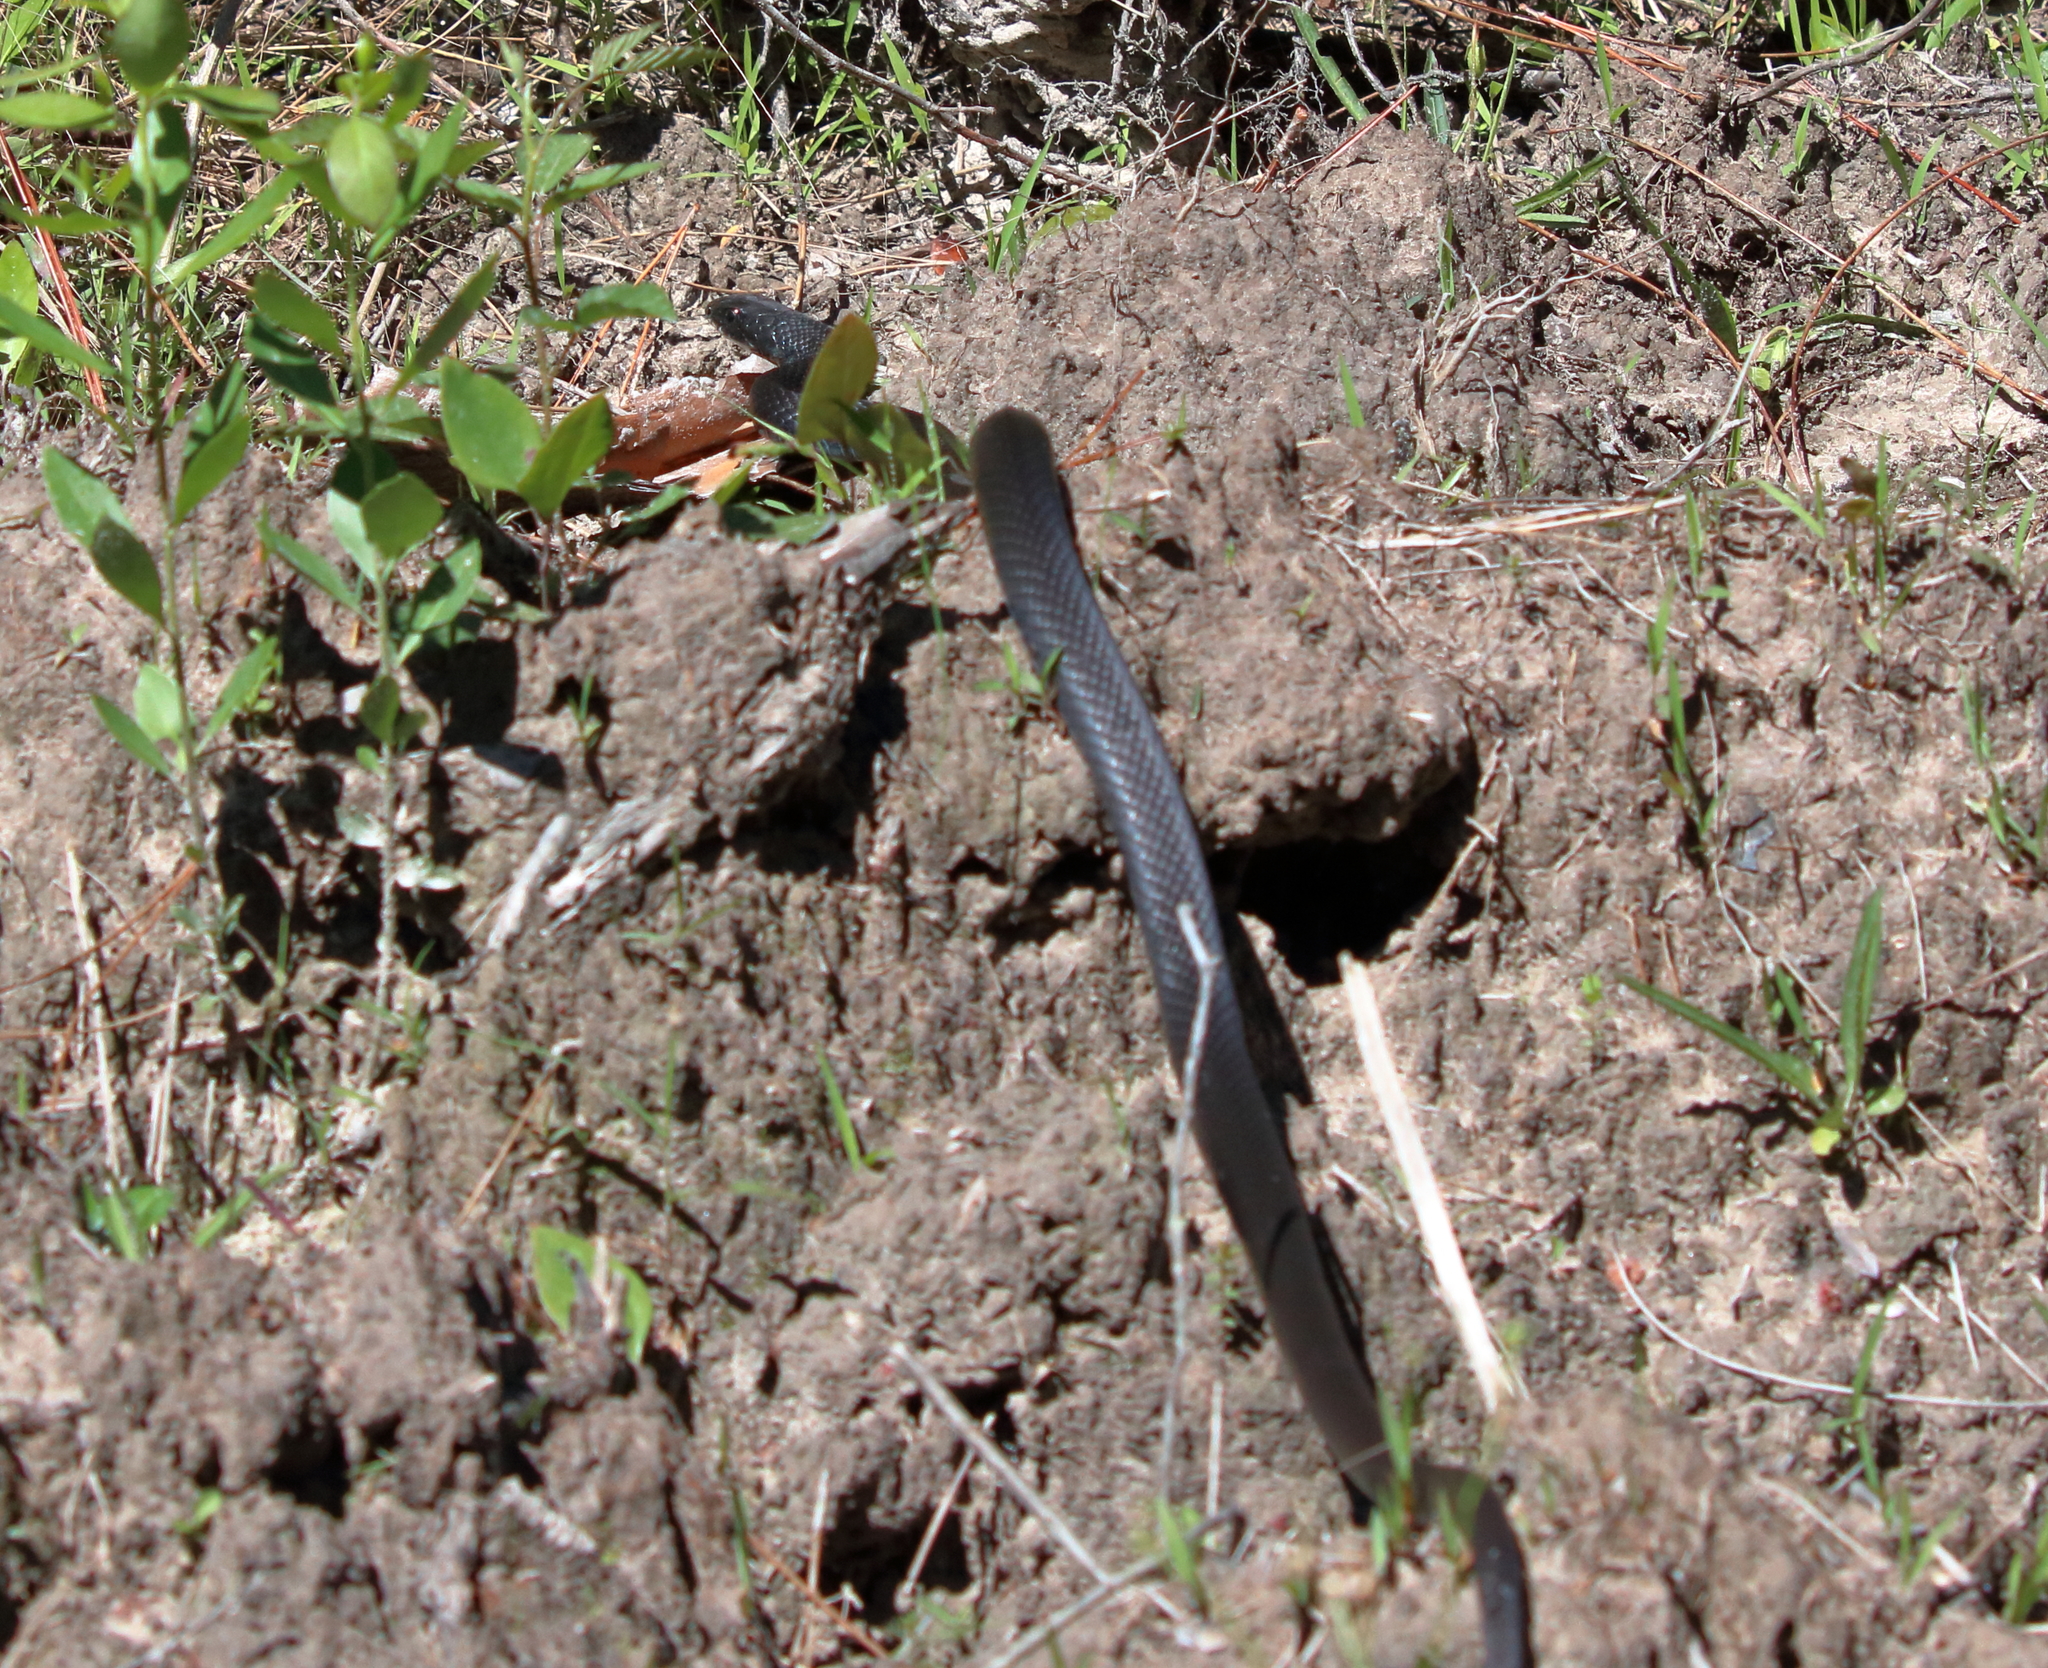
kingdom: Animalia
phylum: Chordata
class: Squamata
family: Colubridae
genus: Coluber
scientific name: Coluber constrictor
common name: Eastern racer
